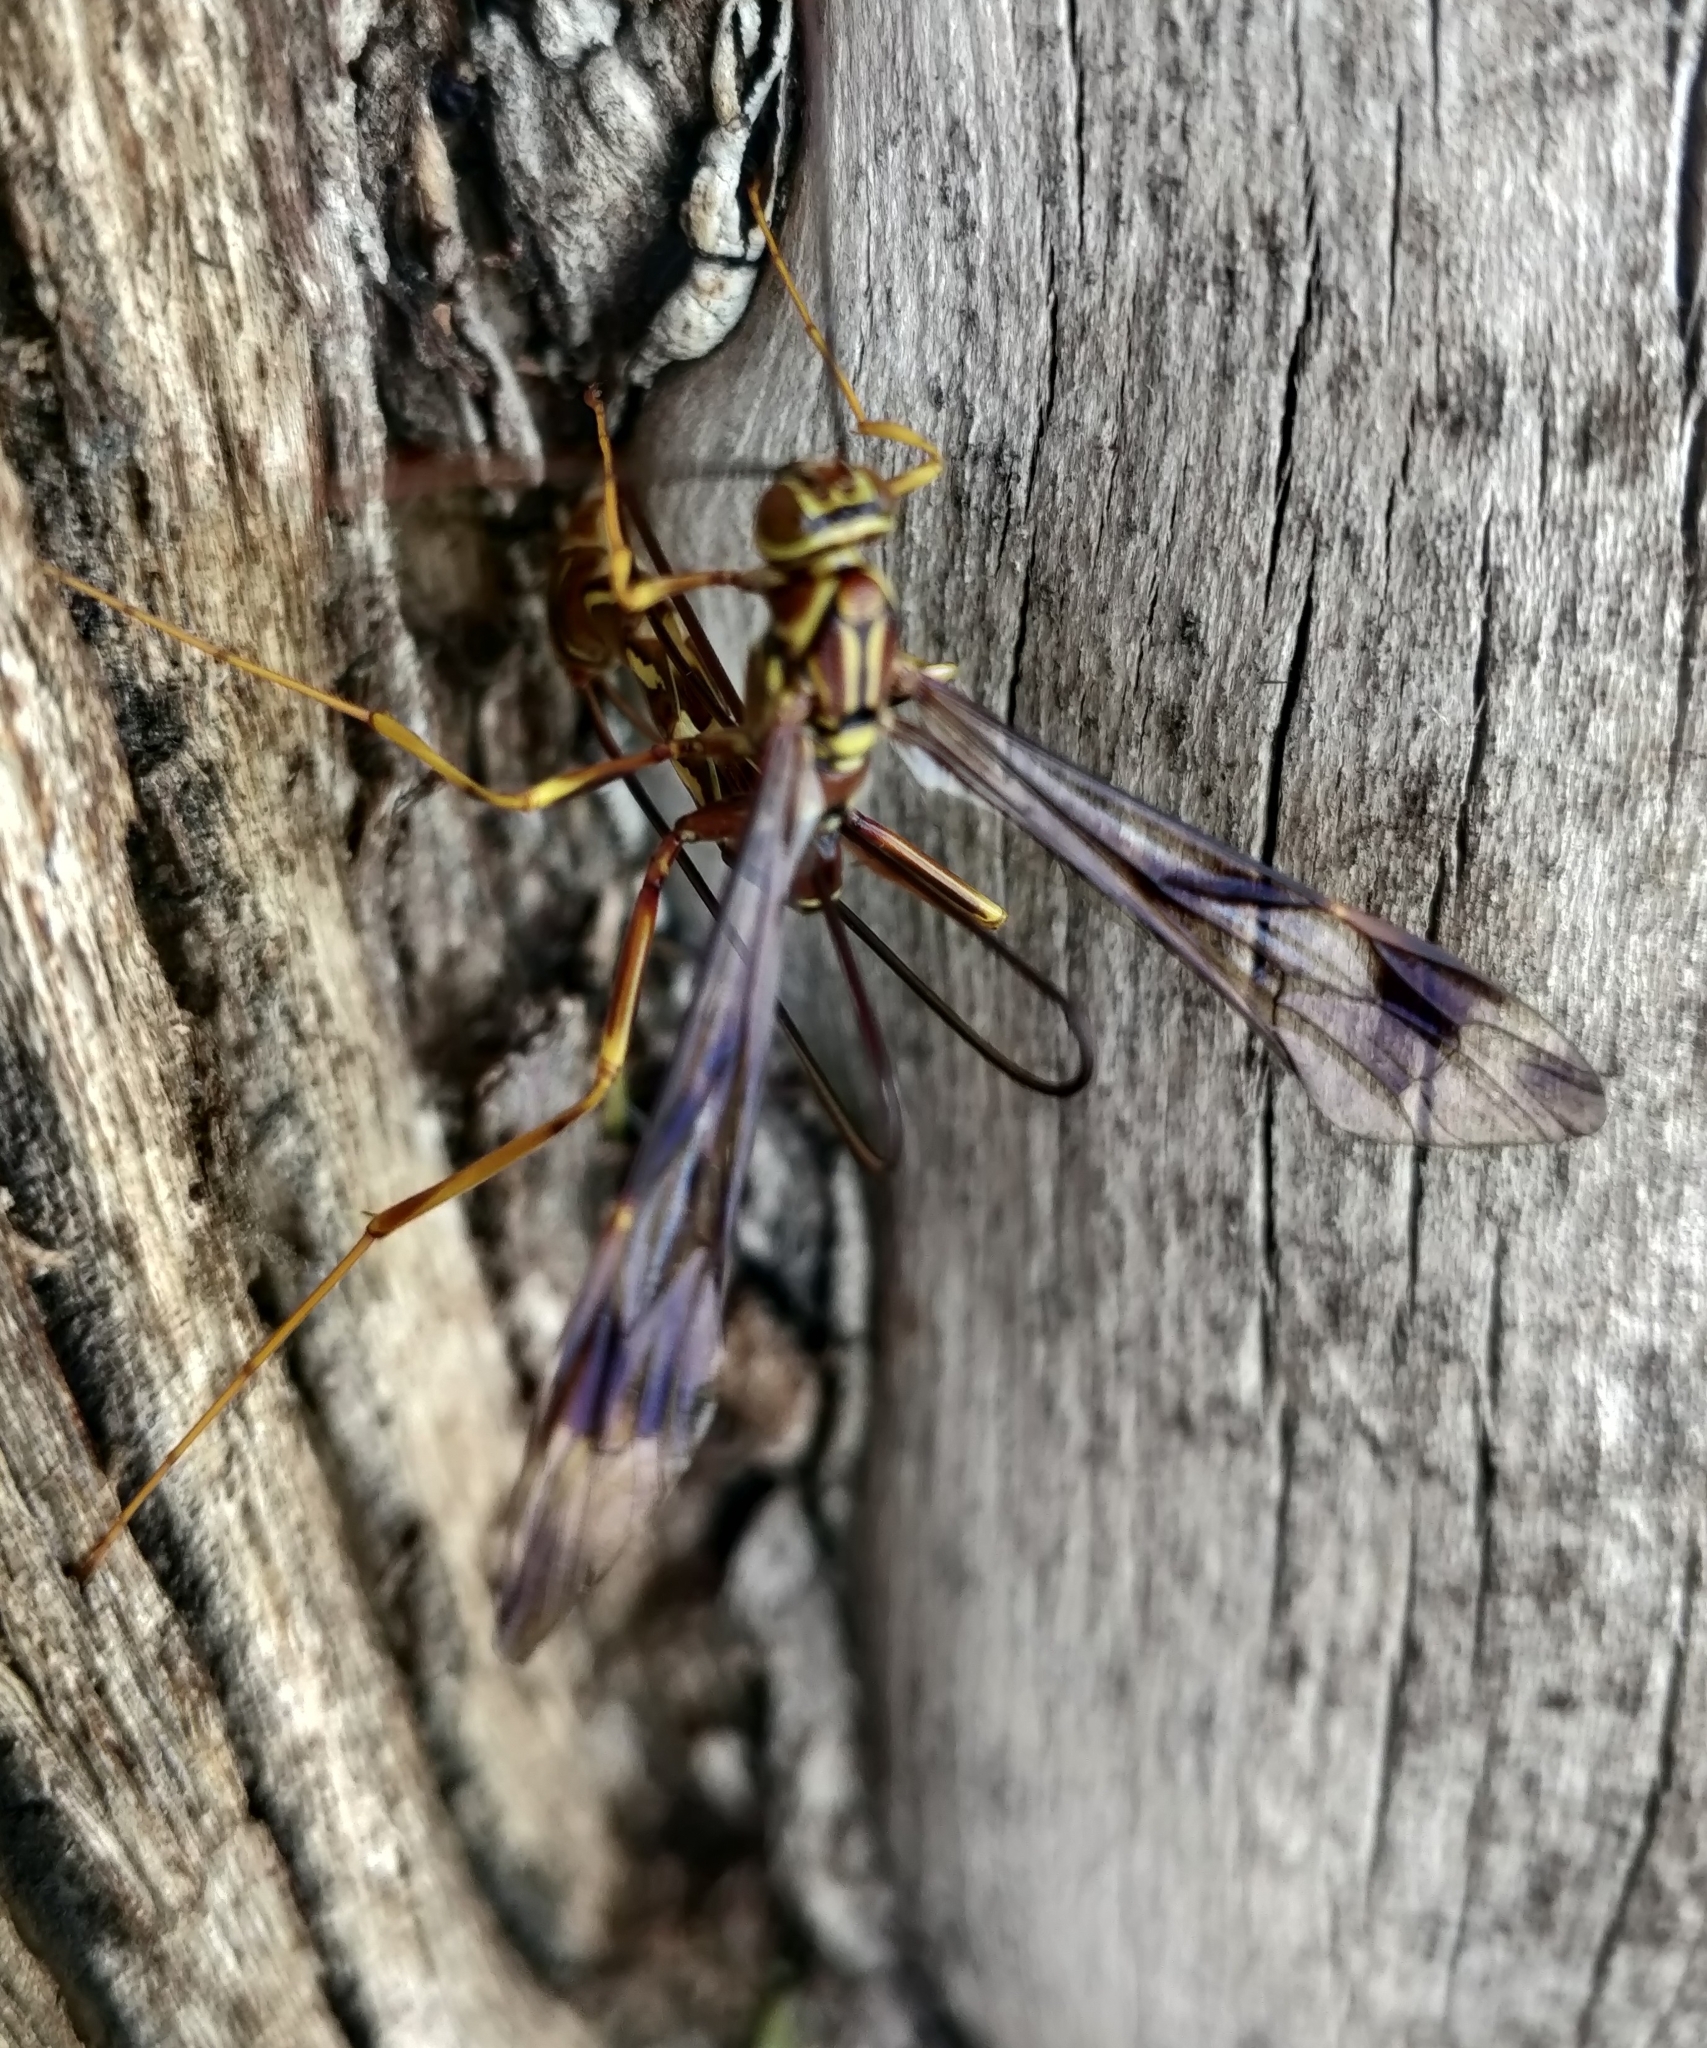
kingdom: Animalia
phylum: Arthropoda
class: Insecta
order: Hymenoptera
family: Ichneumonidae
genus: Megarhyssa
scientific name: Megarhyssa macrura
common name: Long-tailed giant ichneumonid wasp
